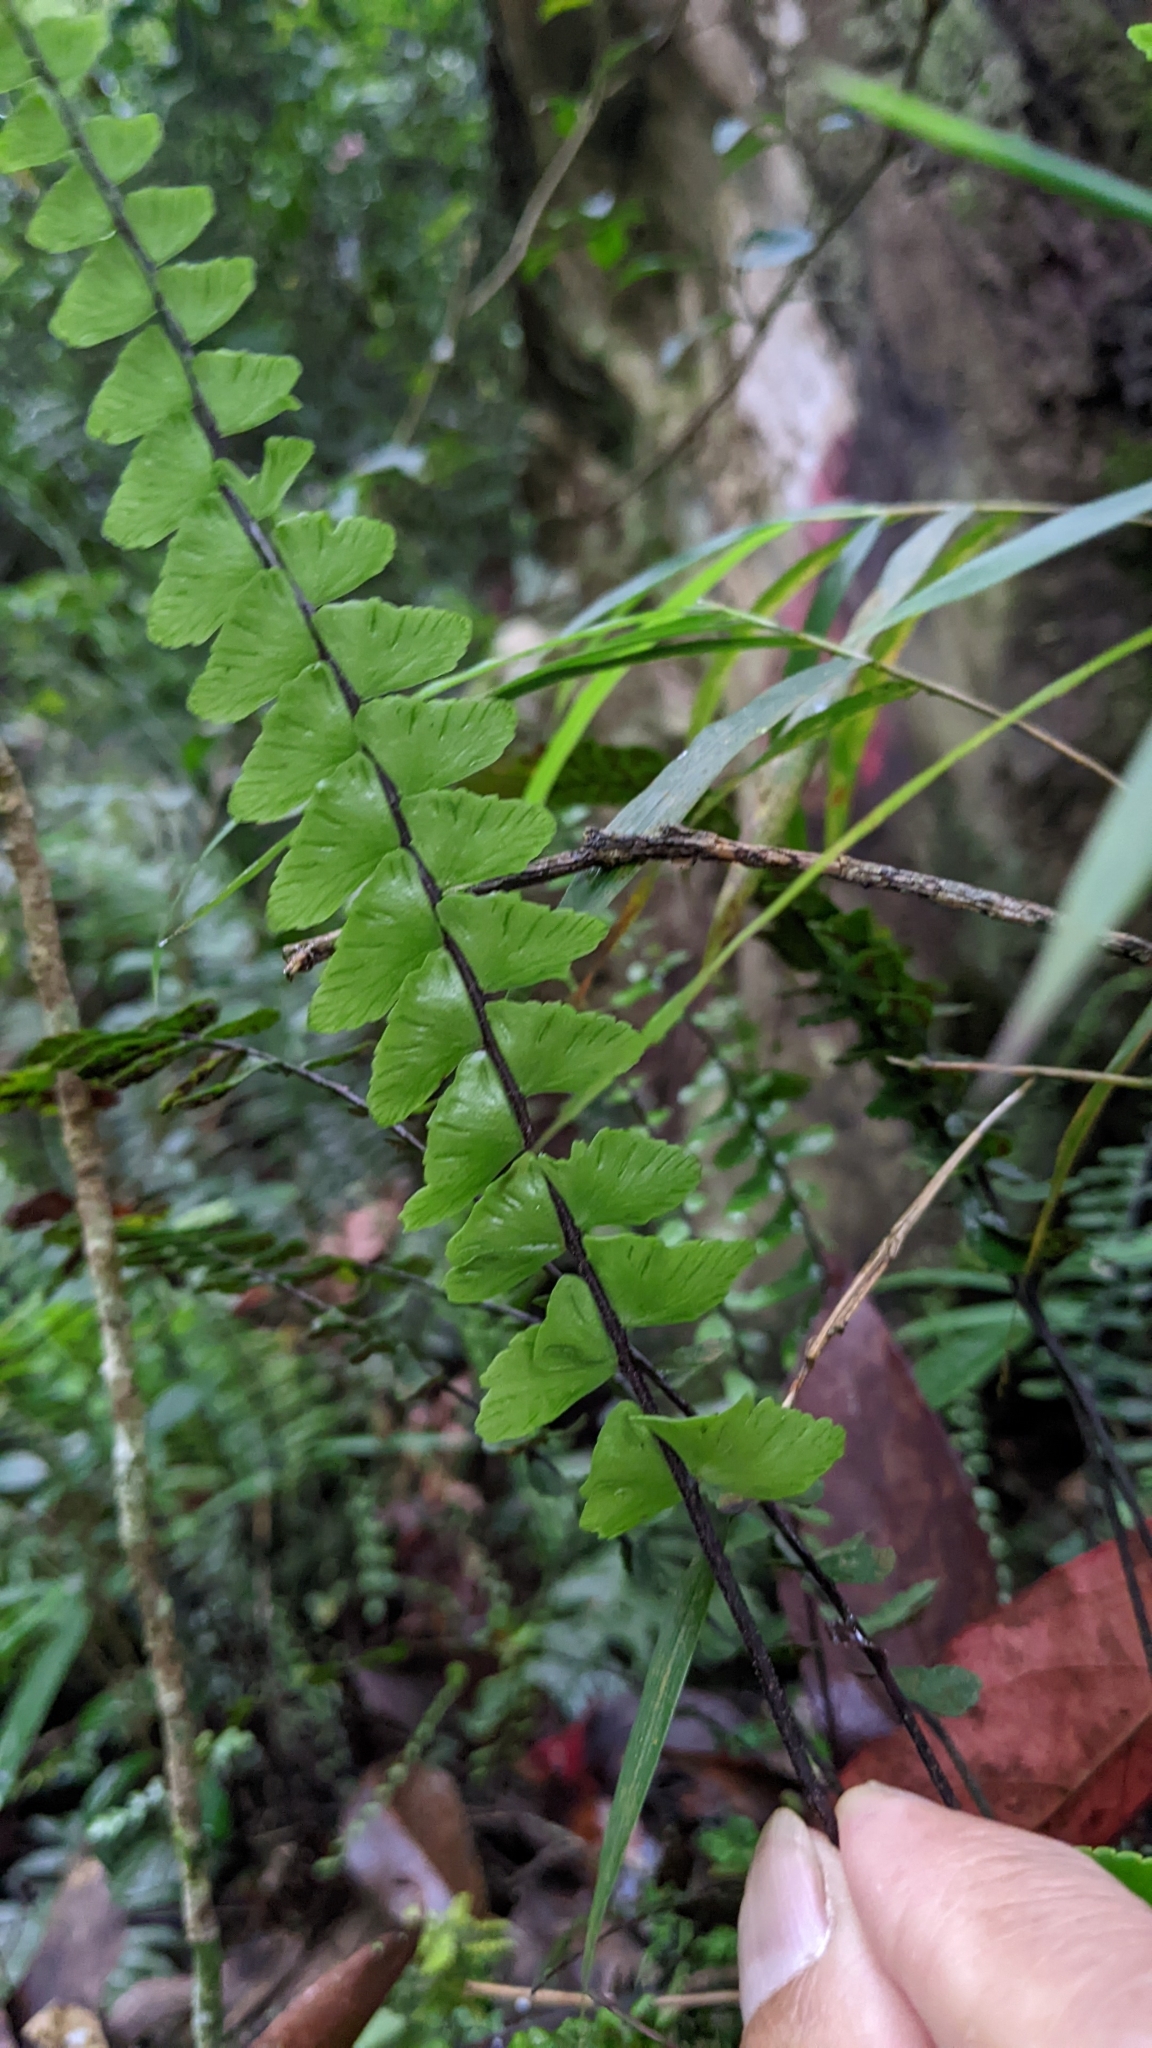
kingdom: Plantae
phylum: Tracheophyta
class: Polypodiopsida
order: Polypodiales
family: Aspleniaceae
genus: Asplenium
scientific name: Asplenium normale
